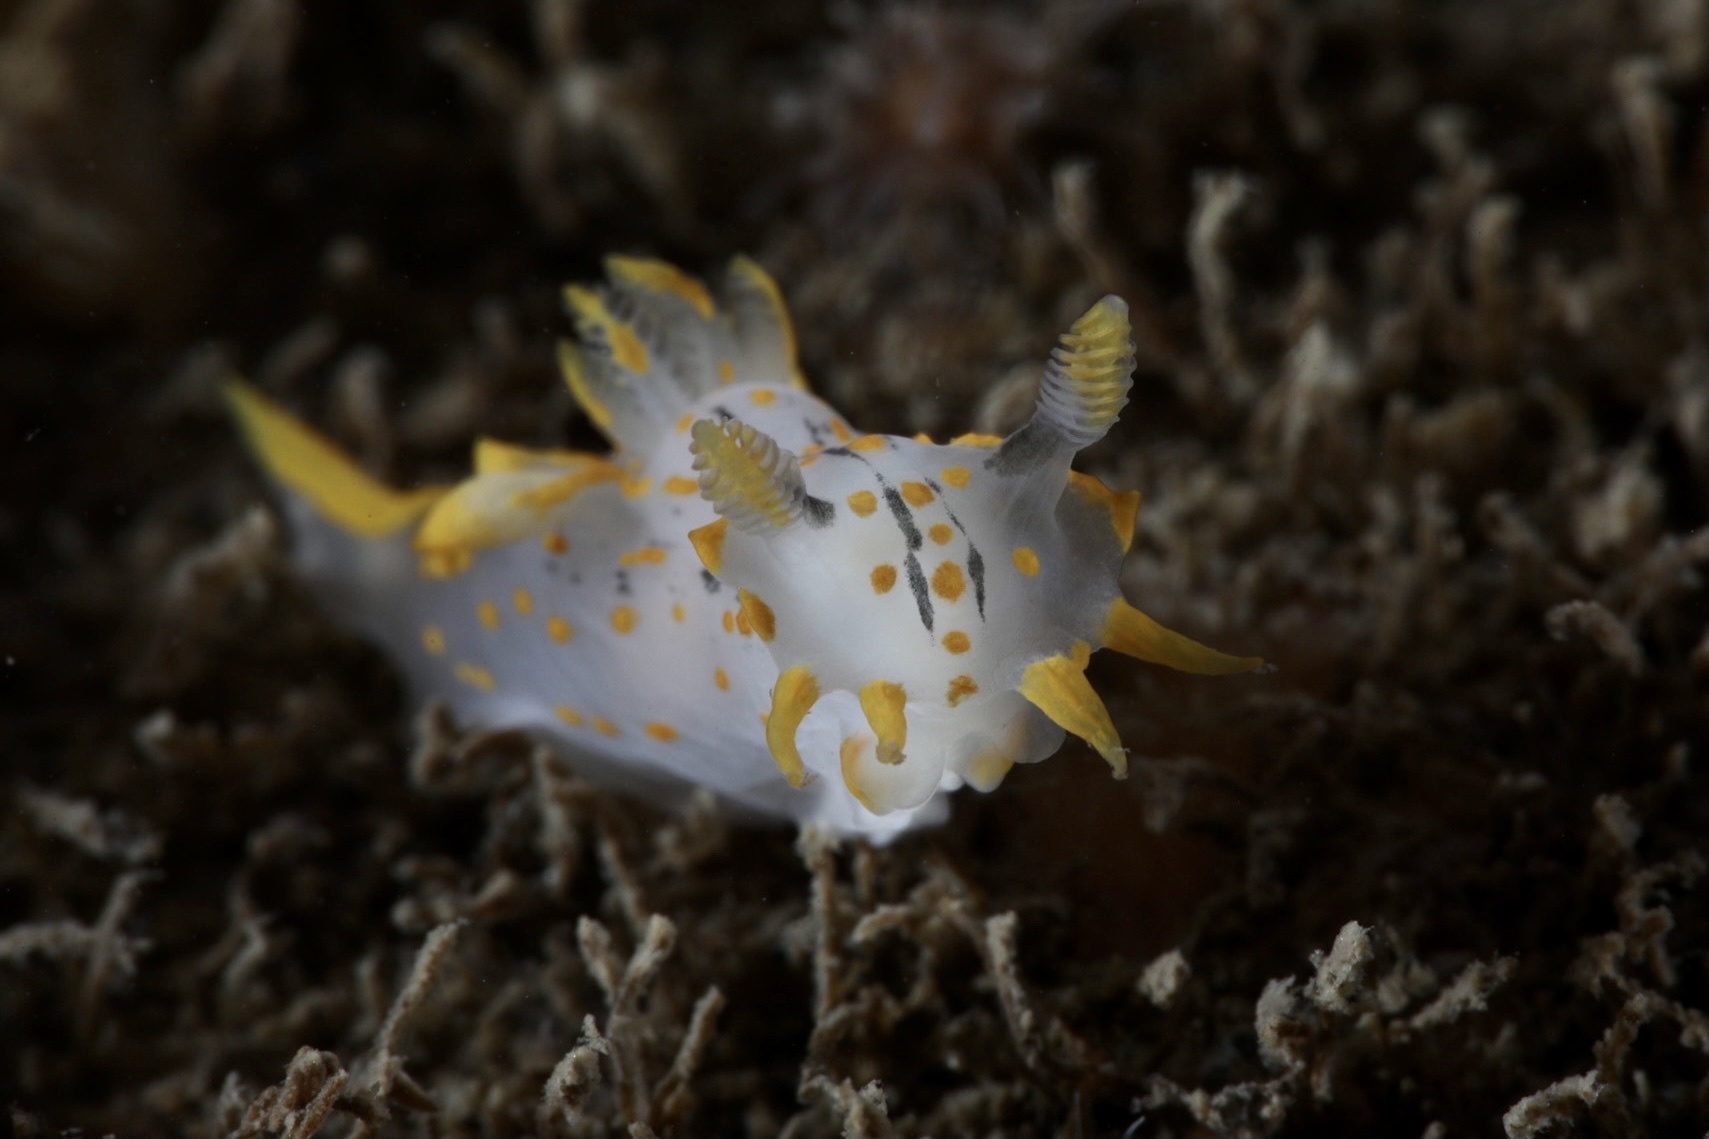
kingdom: Animalia
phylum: Mollusca
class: Gastropoda
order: Nudibranchia
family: Polyceridae
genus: Polycera
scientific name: Polycera quadrilineata
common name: Four-striped polycera
